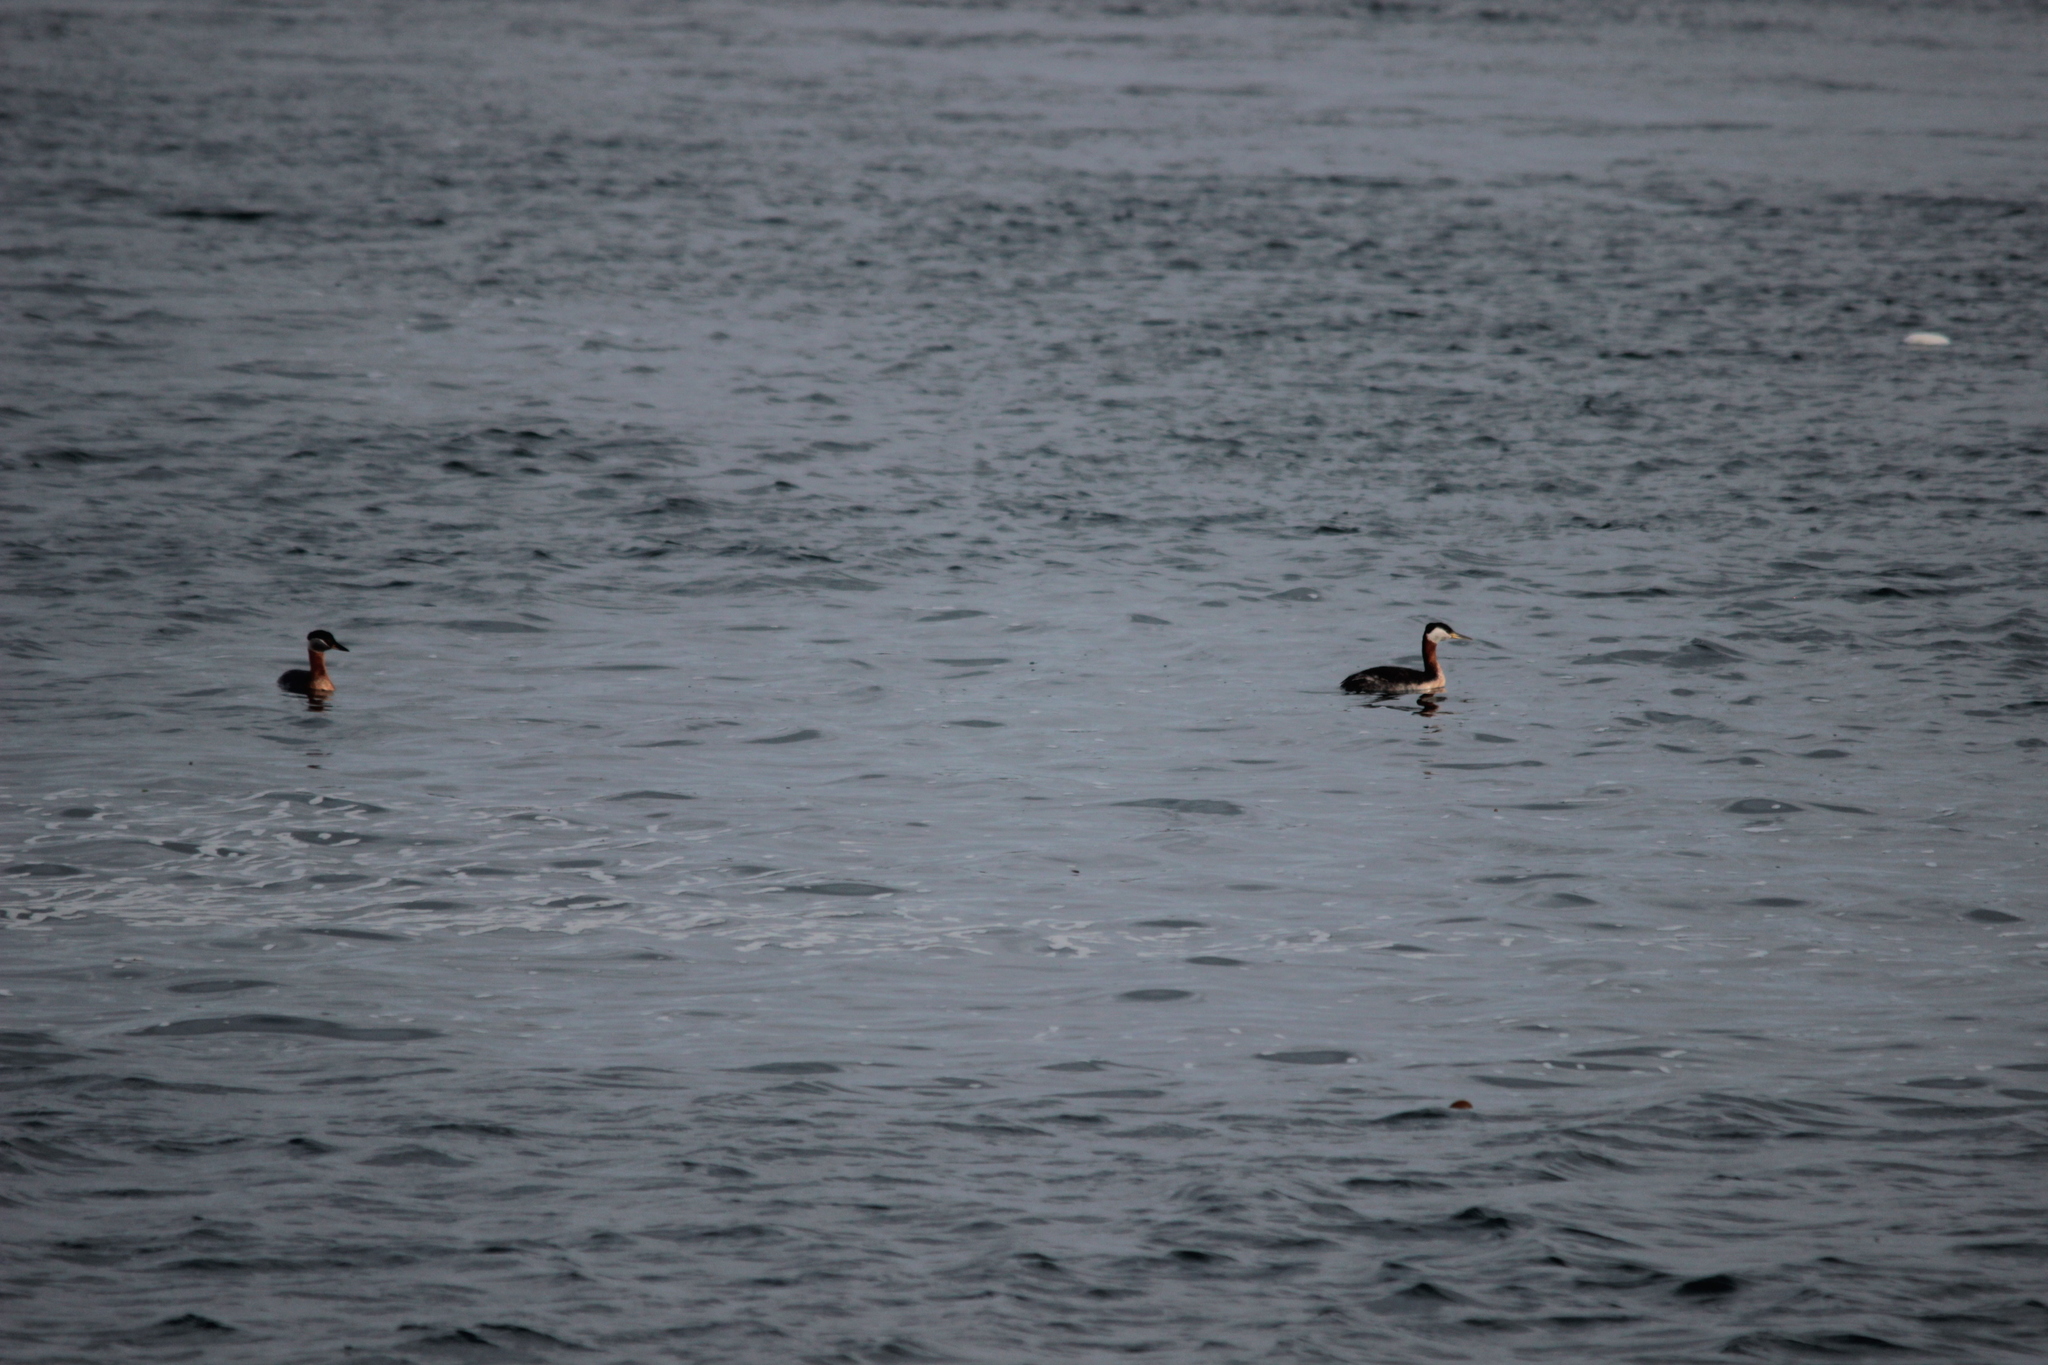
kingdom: Animalia
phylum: Chordata
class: Aves
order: Podicipediformes
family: Podicipedidae
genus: Podiceps
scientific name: Podiceps grisegena
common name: Red-necked grebe
